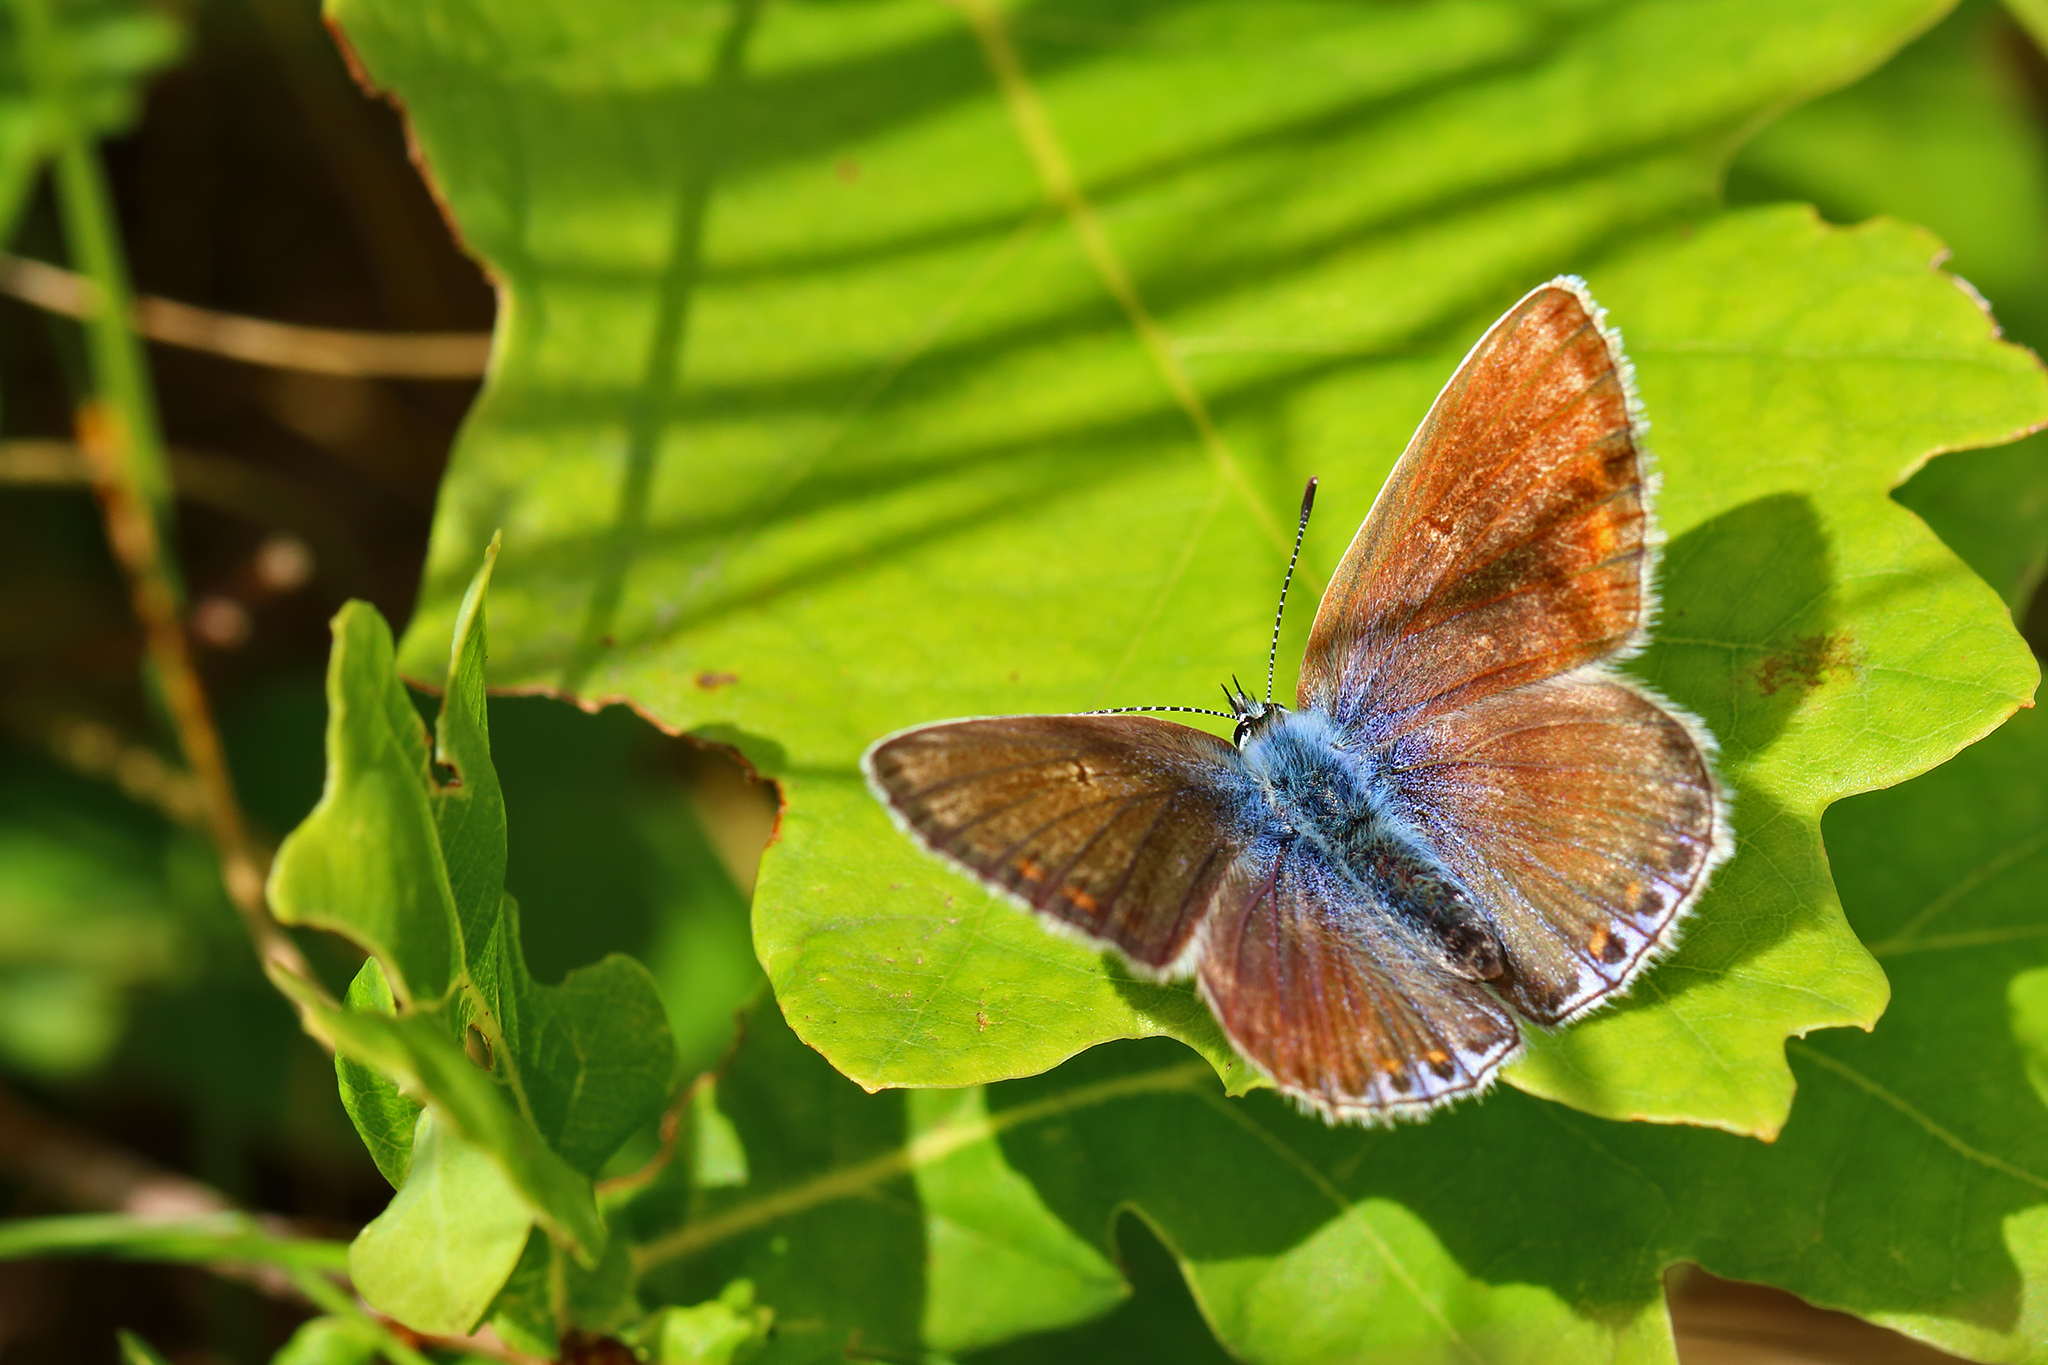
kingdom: Animalia
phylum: Arthropoda
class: Insecta
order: Lepidoptera
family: Lycaenidae
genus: Polyommatus
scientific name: Polyommatus icarus
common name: Common blue
